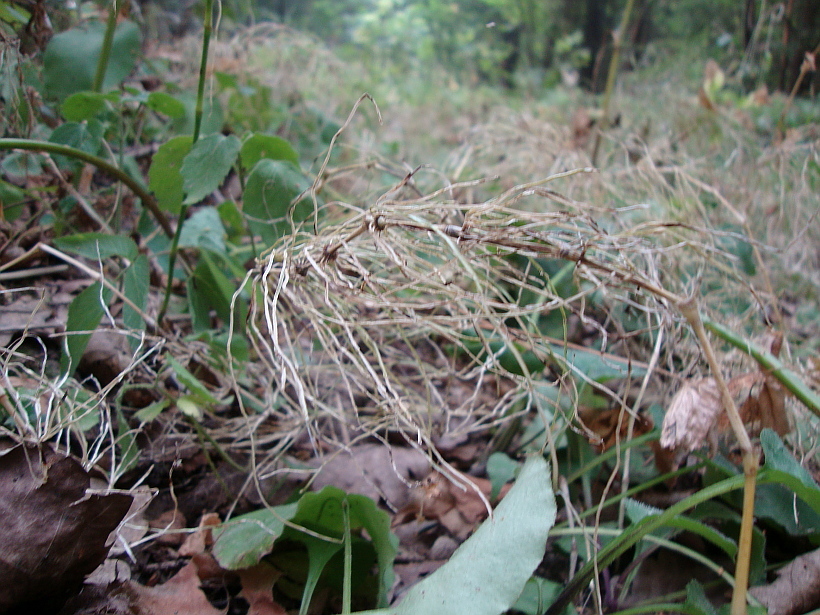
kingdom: Plantae
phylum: Tracheophyta
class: Polypodiopsida
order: Equisetales
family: Equisetaceae
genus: Equisetum
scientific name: Equisetum pratense
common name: Meadow horsetail
